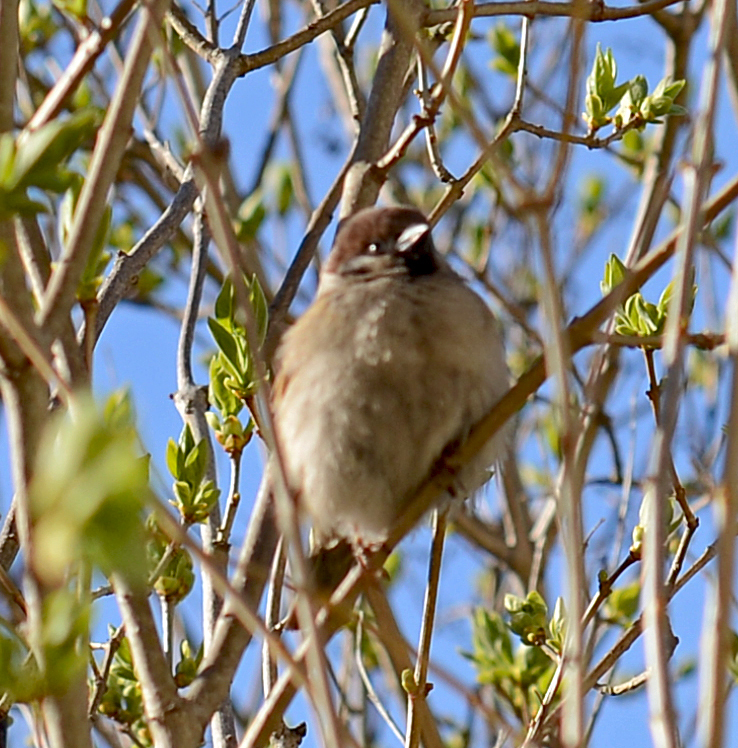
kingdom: Animalia
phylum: Chordata
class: Aves
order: Passeriformes
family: Passeridae
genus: Passer
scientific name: Passer montanus
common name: Eurasian tree sparrow
